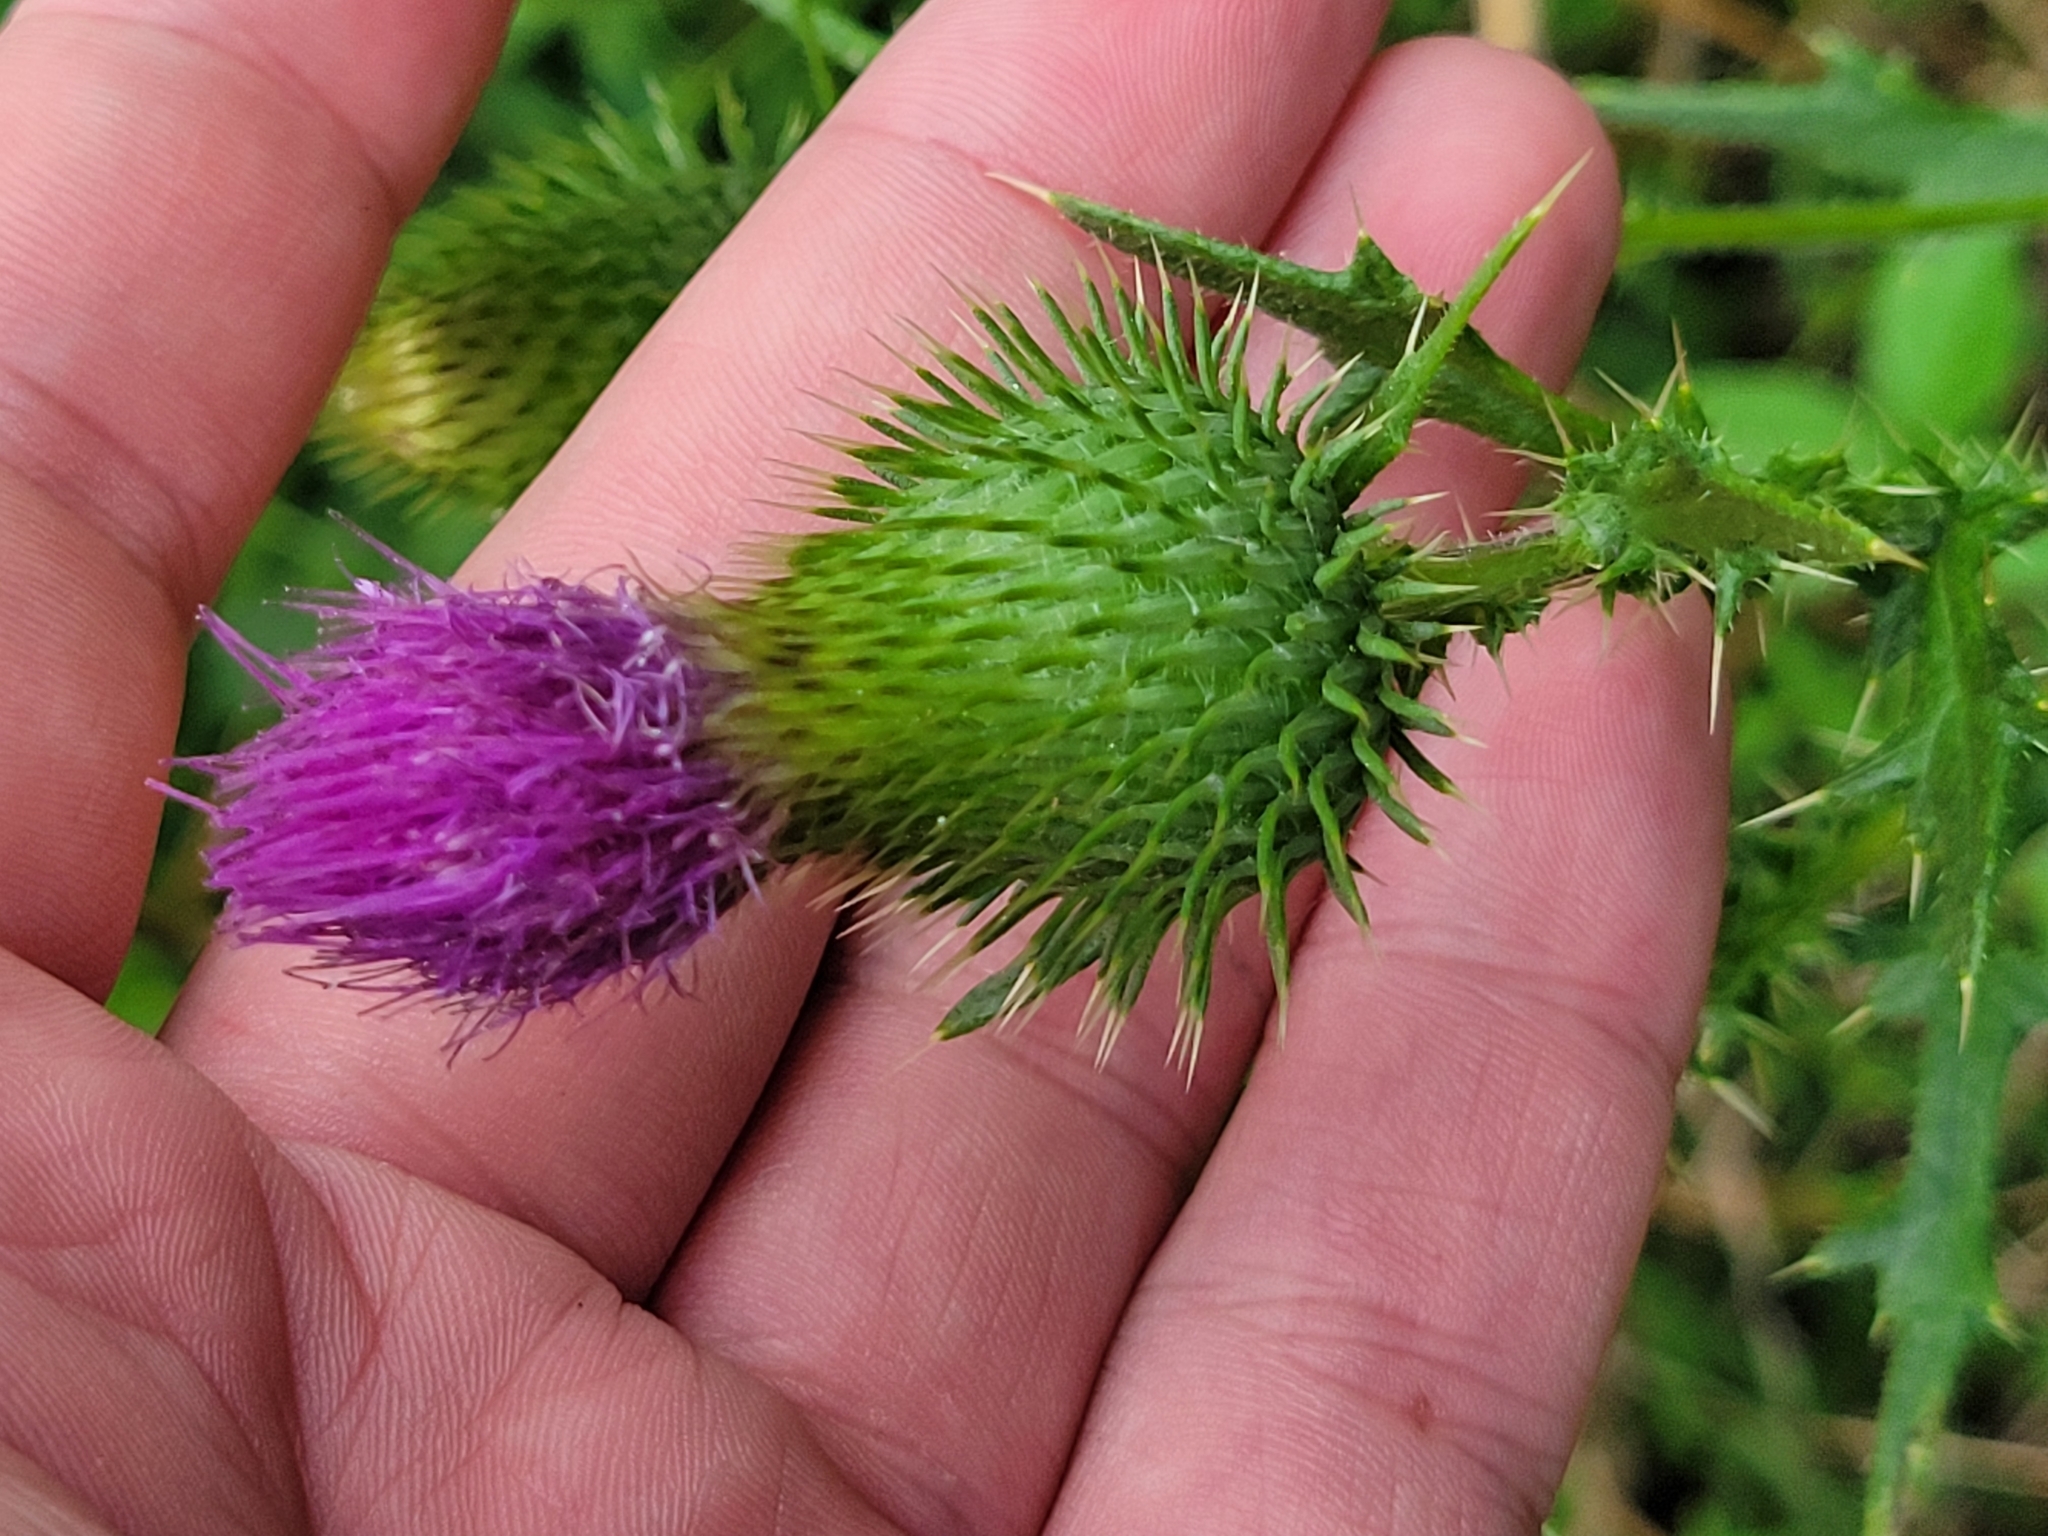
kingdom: Plantae
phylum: Tracheophyta
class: Magnoliopsida
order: Asterales
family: Asteraceae
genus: Cirsium
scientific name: Cirsium vulgare
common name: Bull thistle
